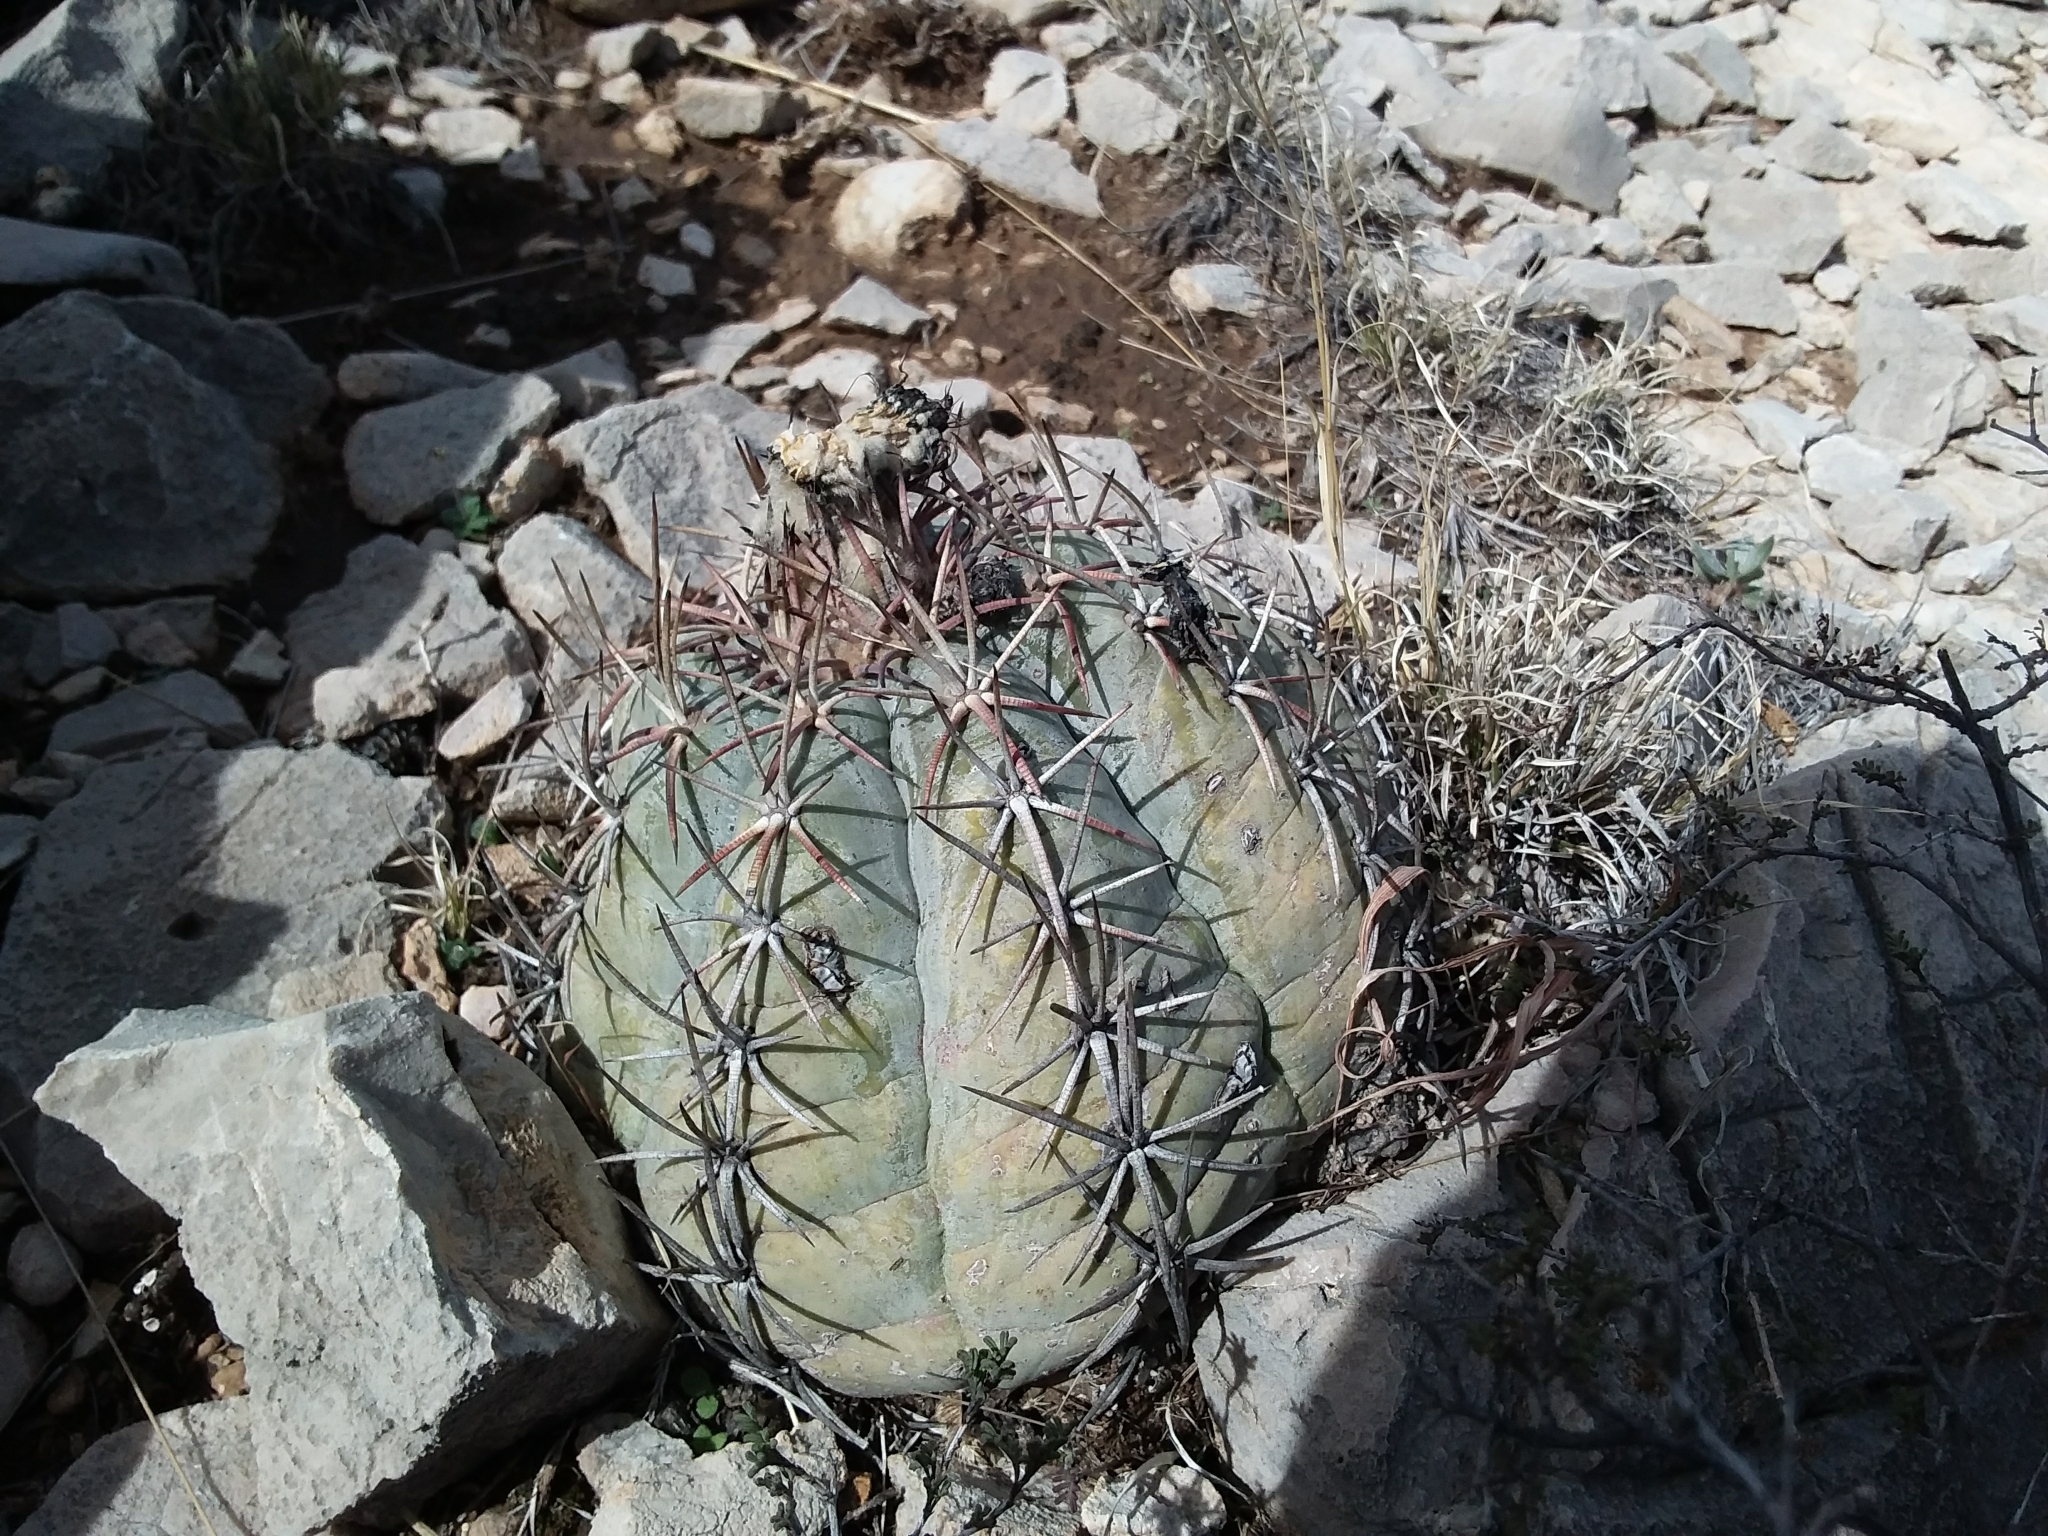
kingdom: Plantae
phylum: Tracheophyta
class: Magnoliopsida
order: Caryophyllales
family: Cactaceae
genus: Echinocactus
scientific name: Echinocactus horizonthalonius
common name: Devilshead
